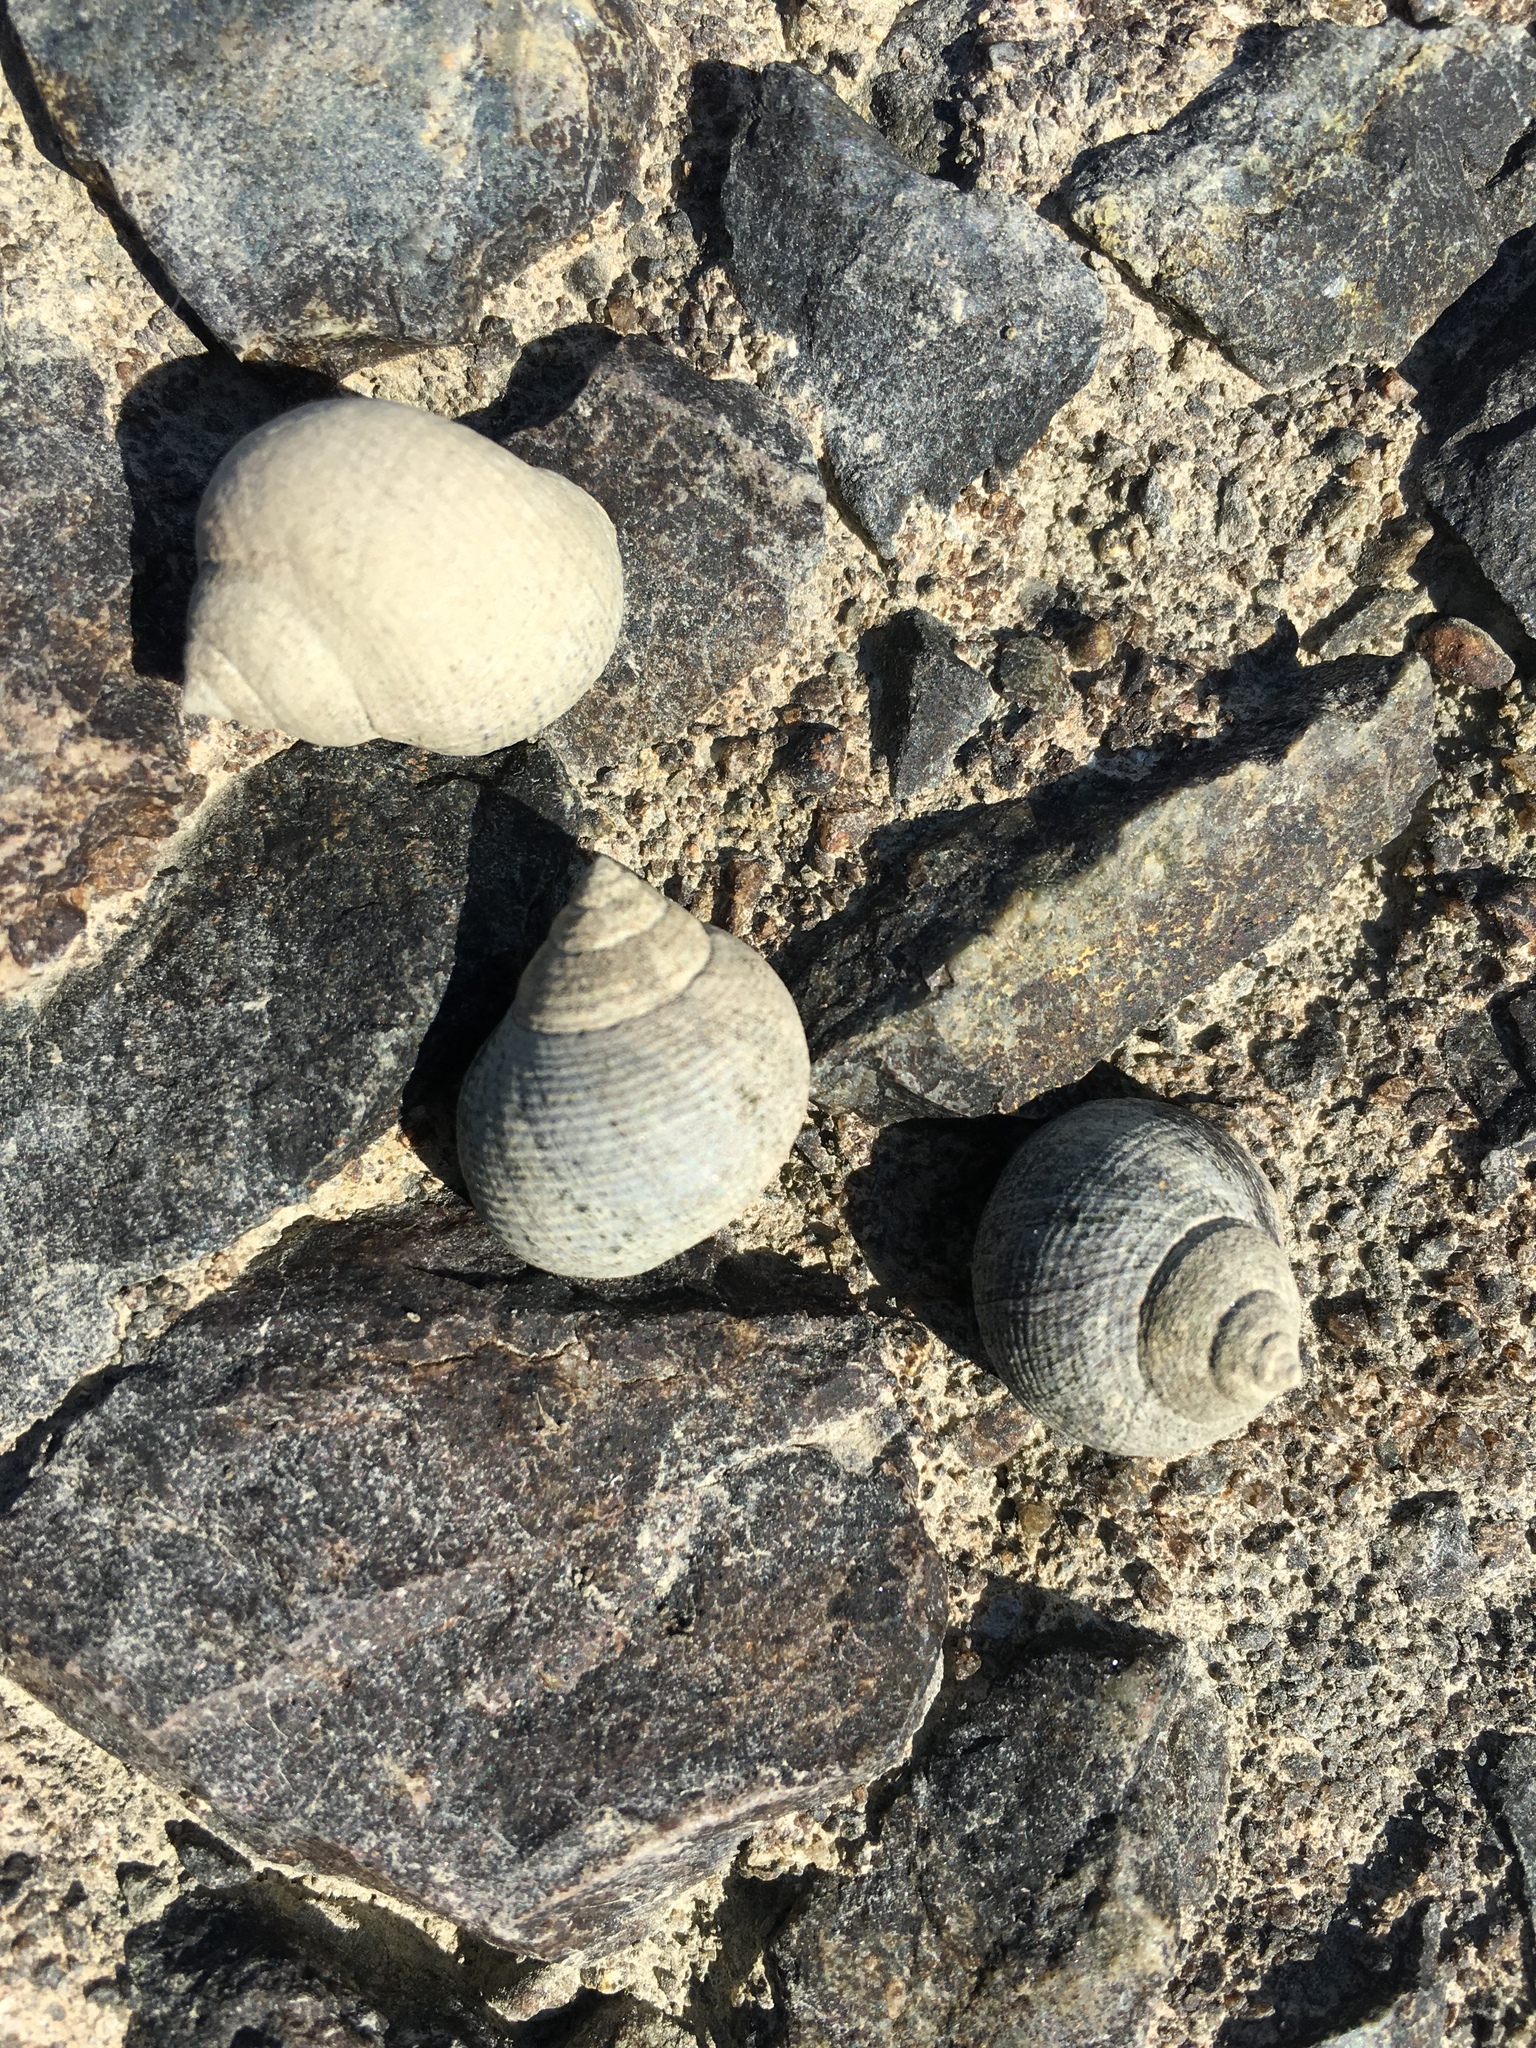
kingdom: Animalia
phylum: Mollusca
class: Gastropoda
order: Littorinimorpha
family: Littorinidae
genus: Littorina
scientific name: Littorina littorea
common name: Common periwinkle
